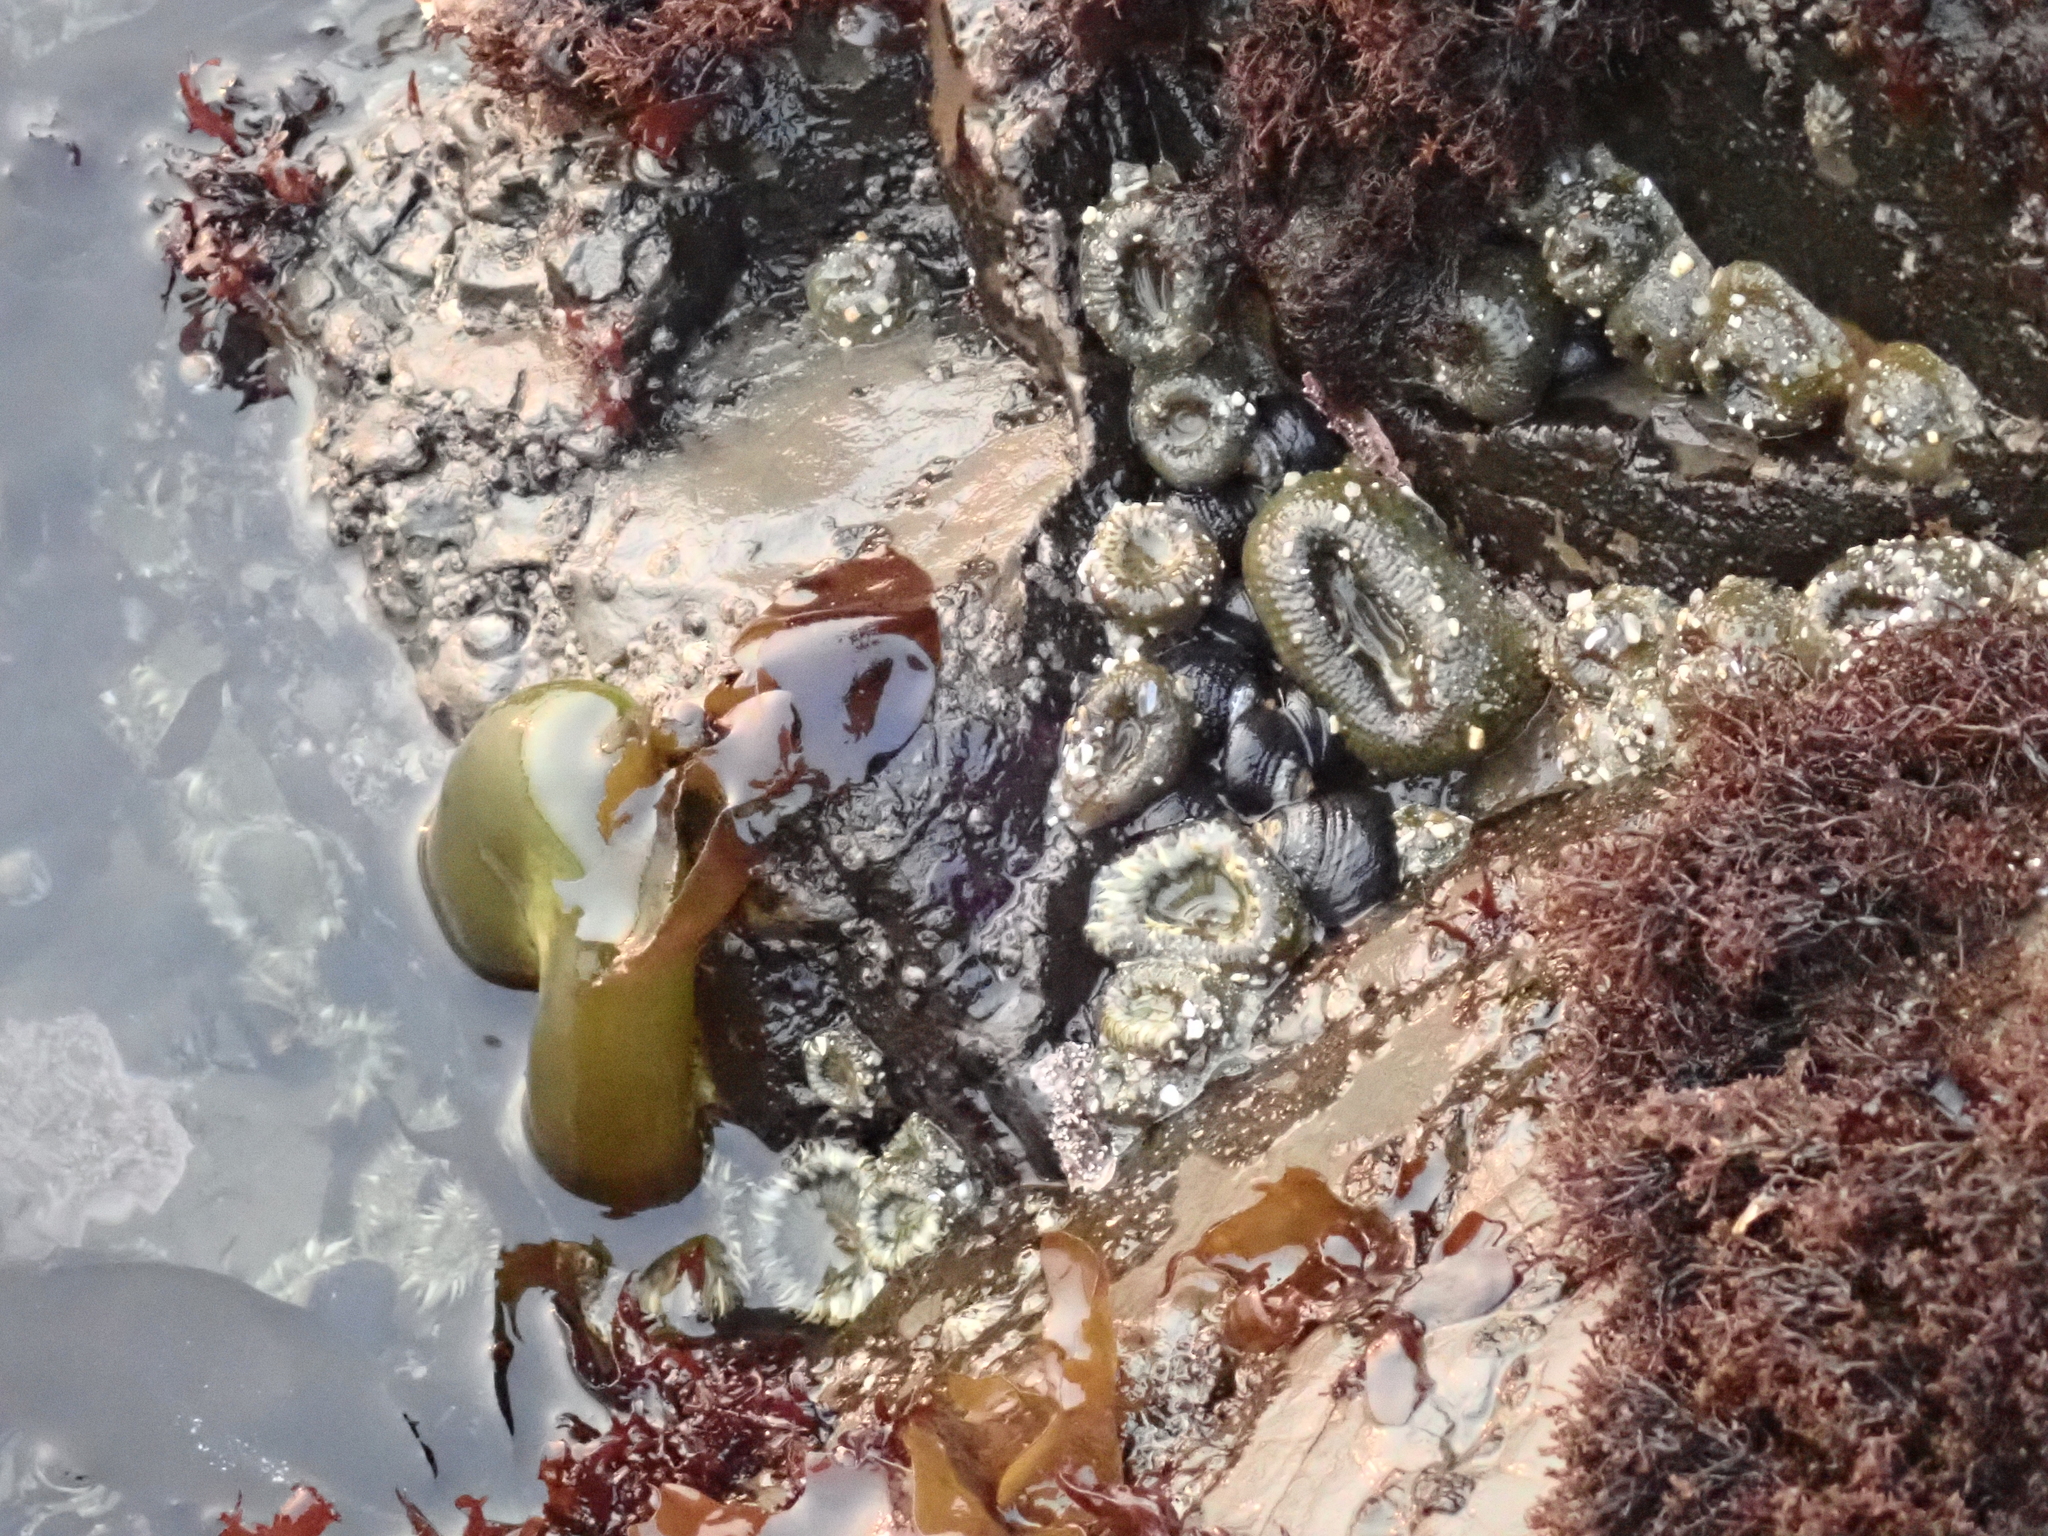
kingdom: Animalia
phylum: Cnidaria
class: Anthozoa
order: Actiniaria
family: Actiniidae
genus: Anthopleura
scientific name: Anthopleura elegantissima
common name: Clonal anemone
